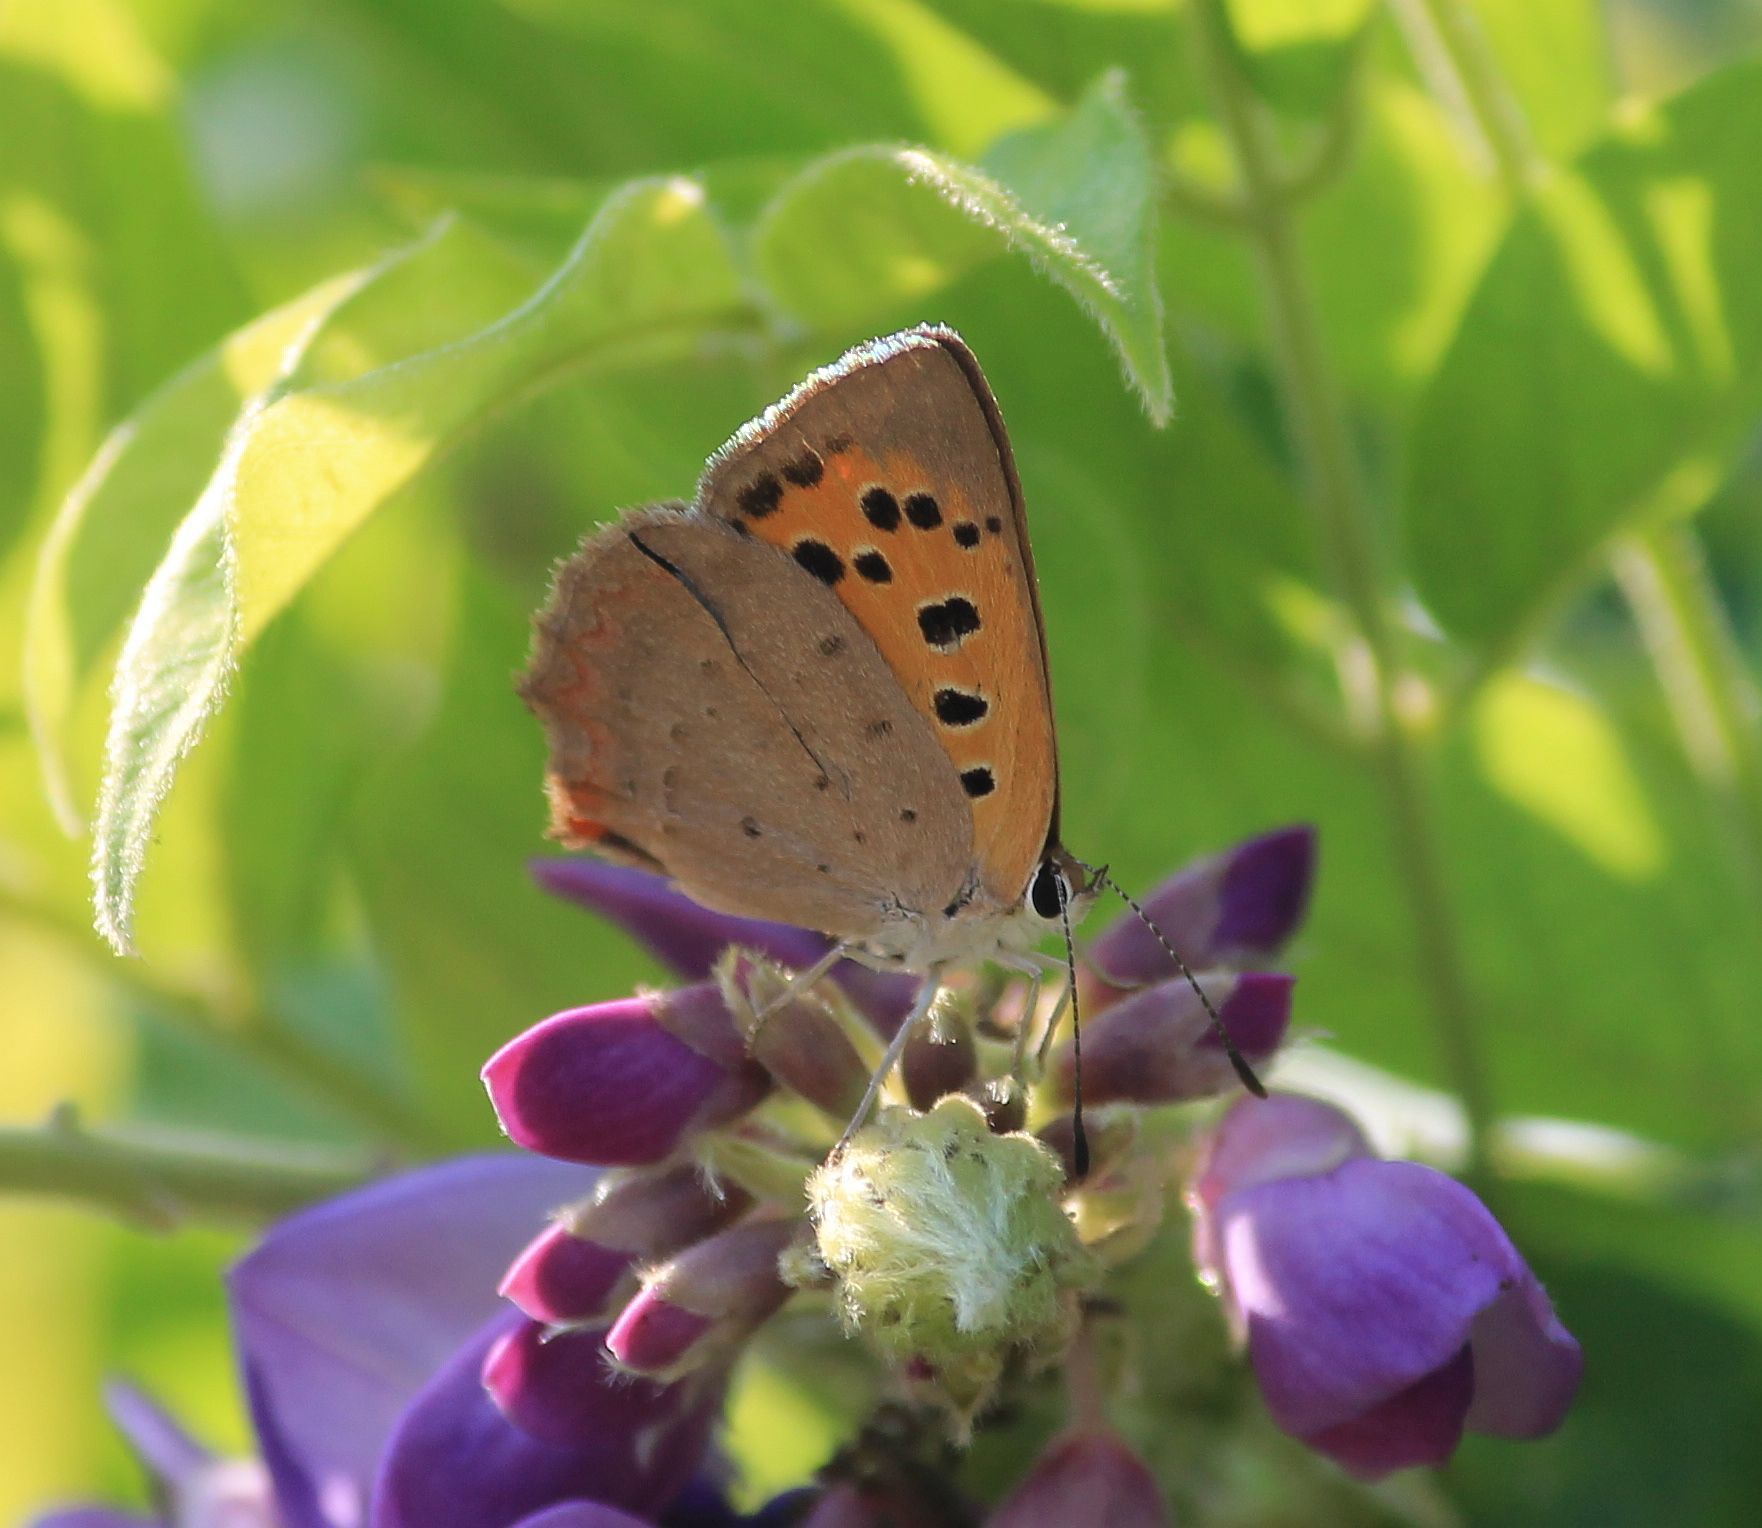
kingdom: Animalia
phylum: Arthropoda
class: Insecta
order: Lepidoptera
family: Lycaenidae
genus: Lycaena
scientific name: Lycaena phlaeas
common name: Small copper
